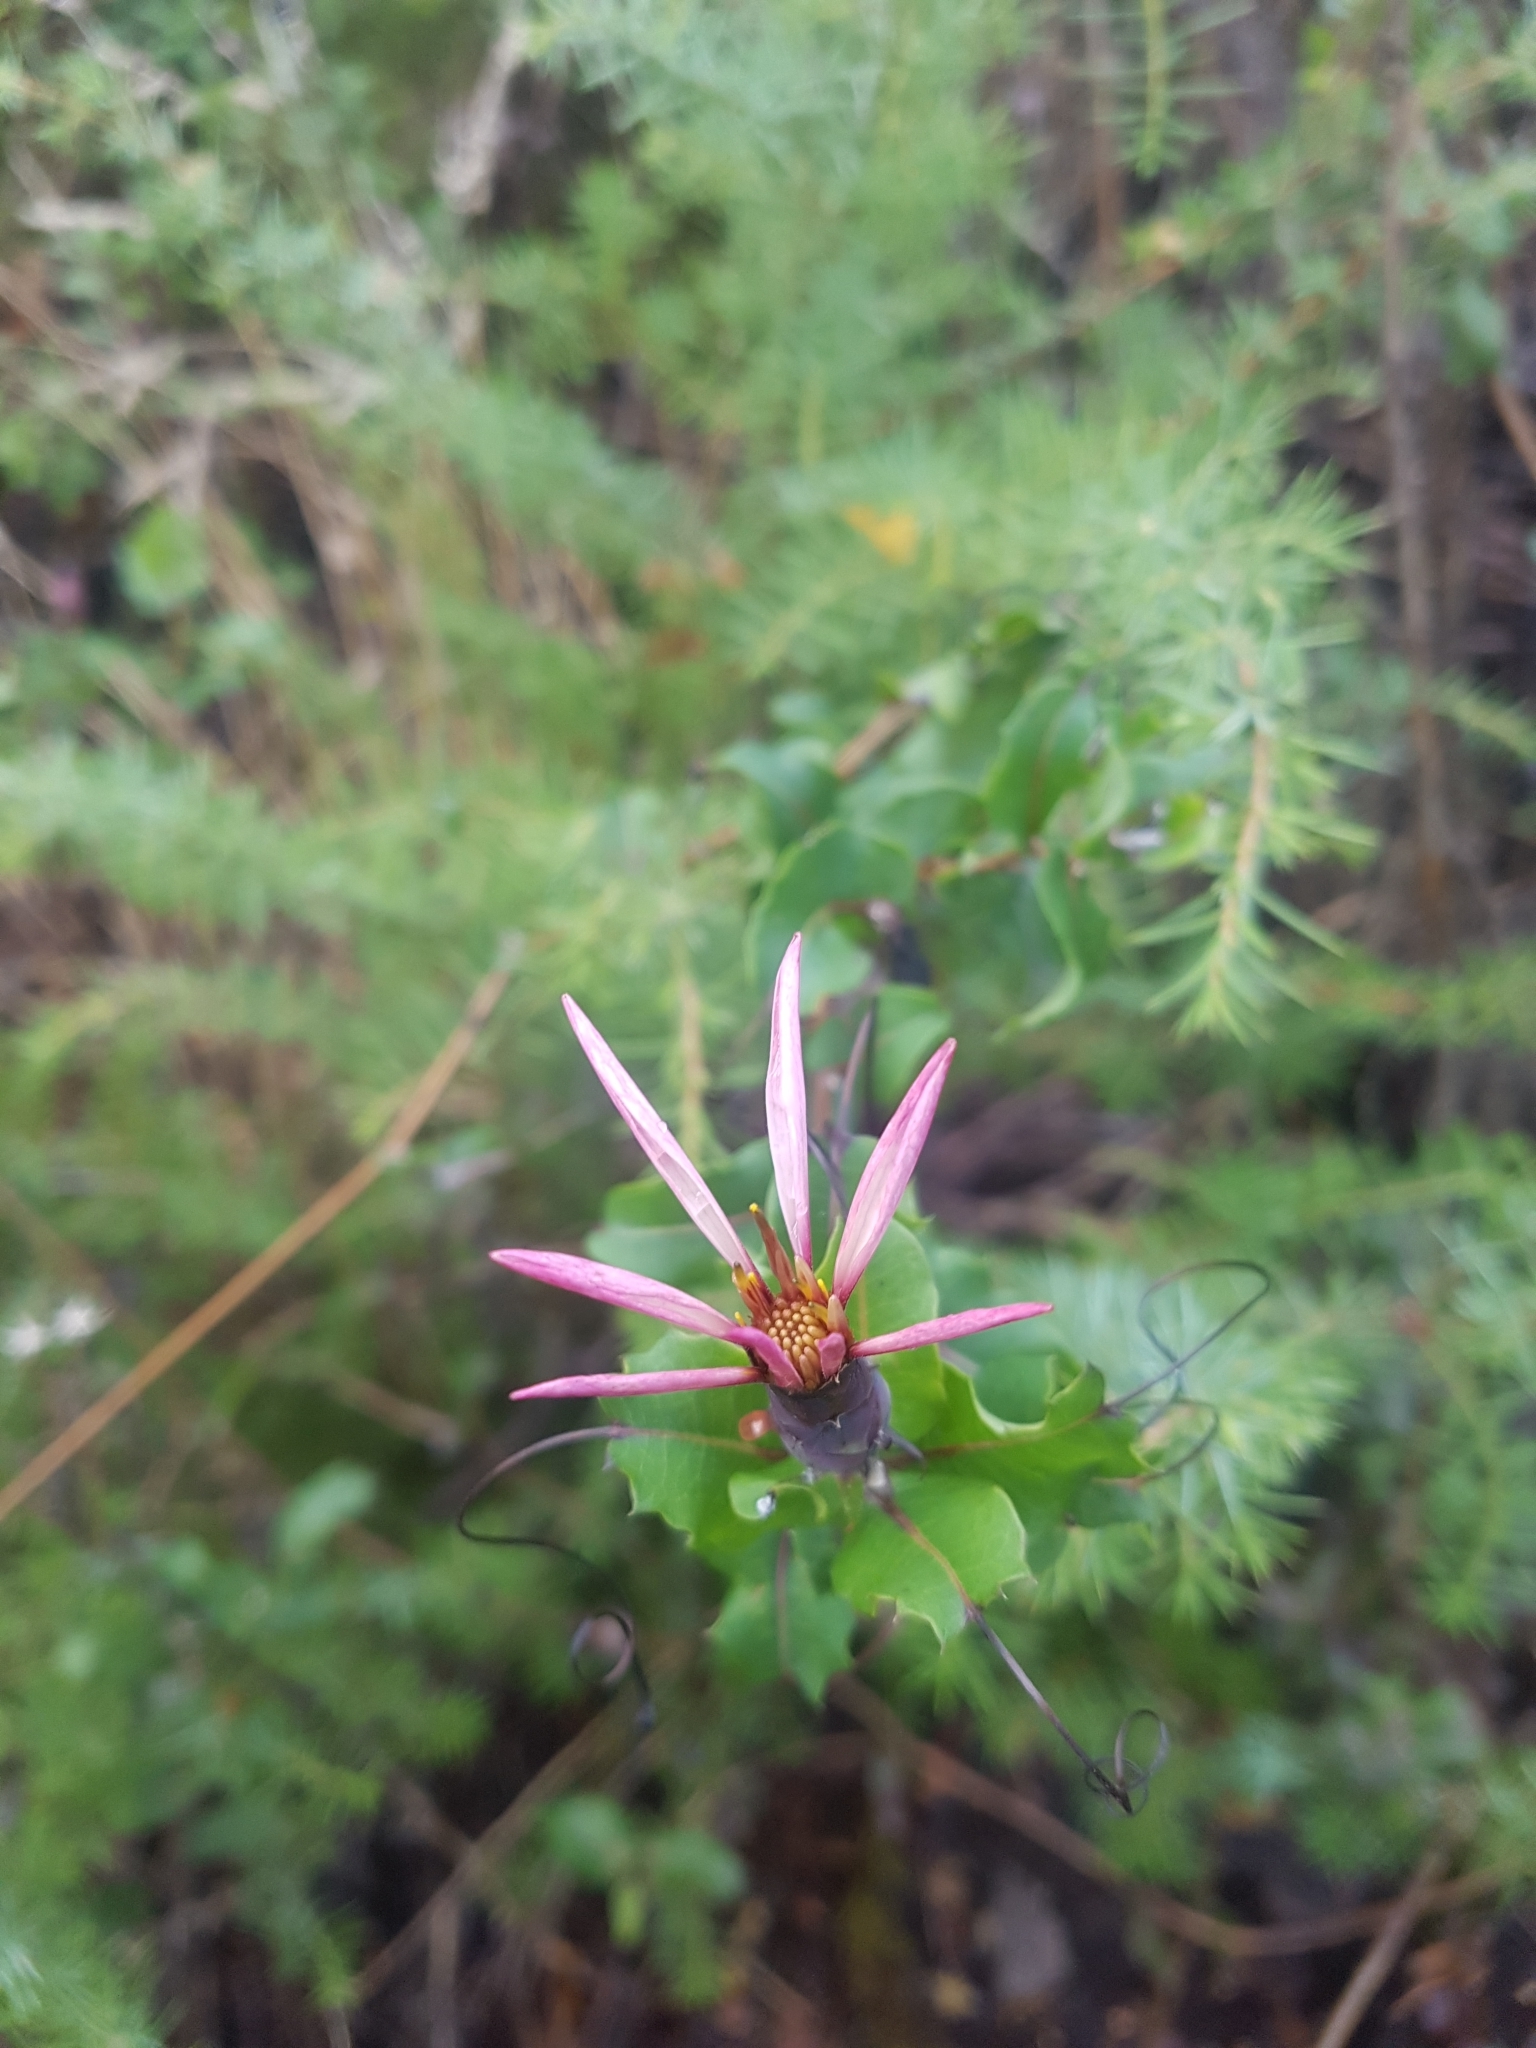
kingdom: Plantae
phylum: Tracheophyta
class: Magnoliopsida
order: Asterales
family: Asteraceae
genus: Mutisia
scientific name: Mutisia spinosa
